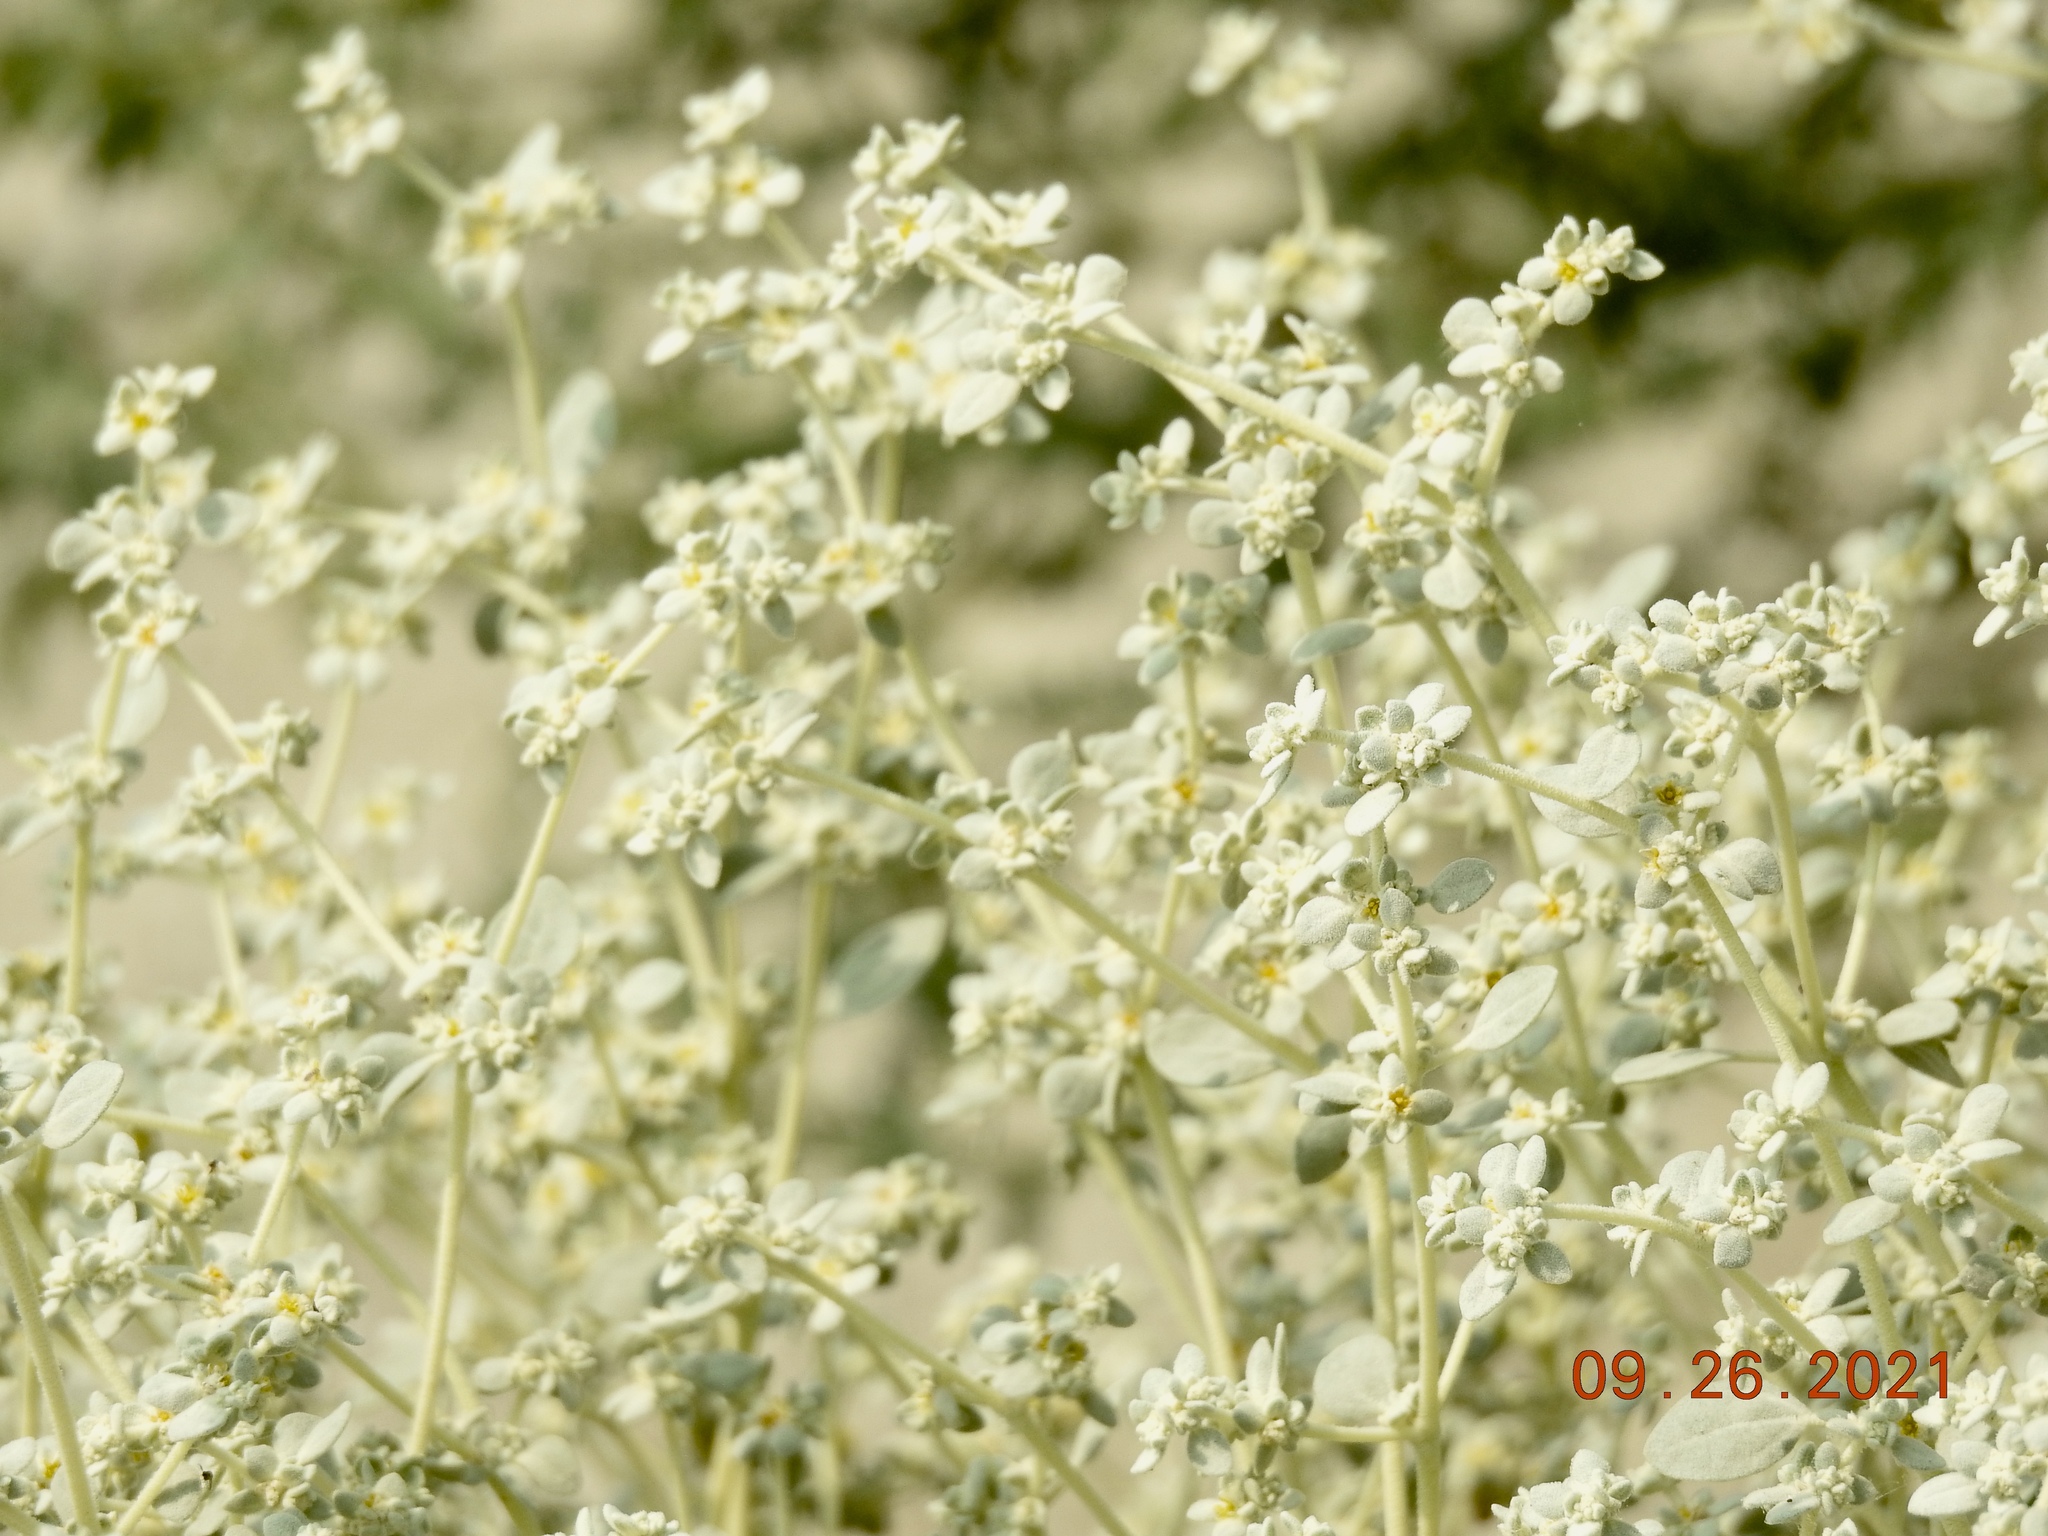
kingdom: Plantae
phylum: Tracheophyta
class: Magnoliopsida
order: Caryophyllales
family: Amaranthaceae
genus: Tidestromia
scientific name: Tidestromia suffruticosa
